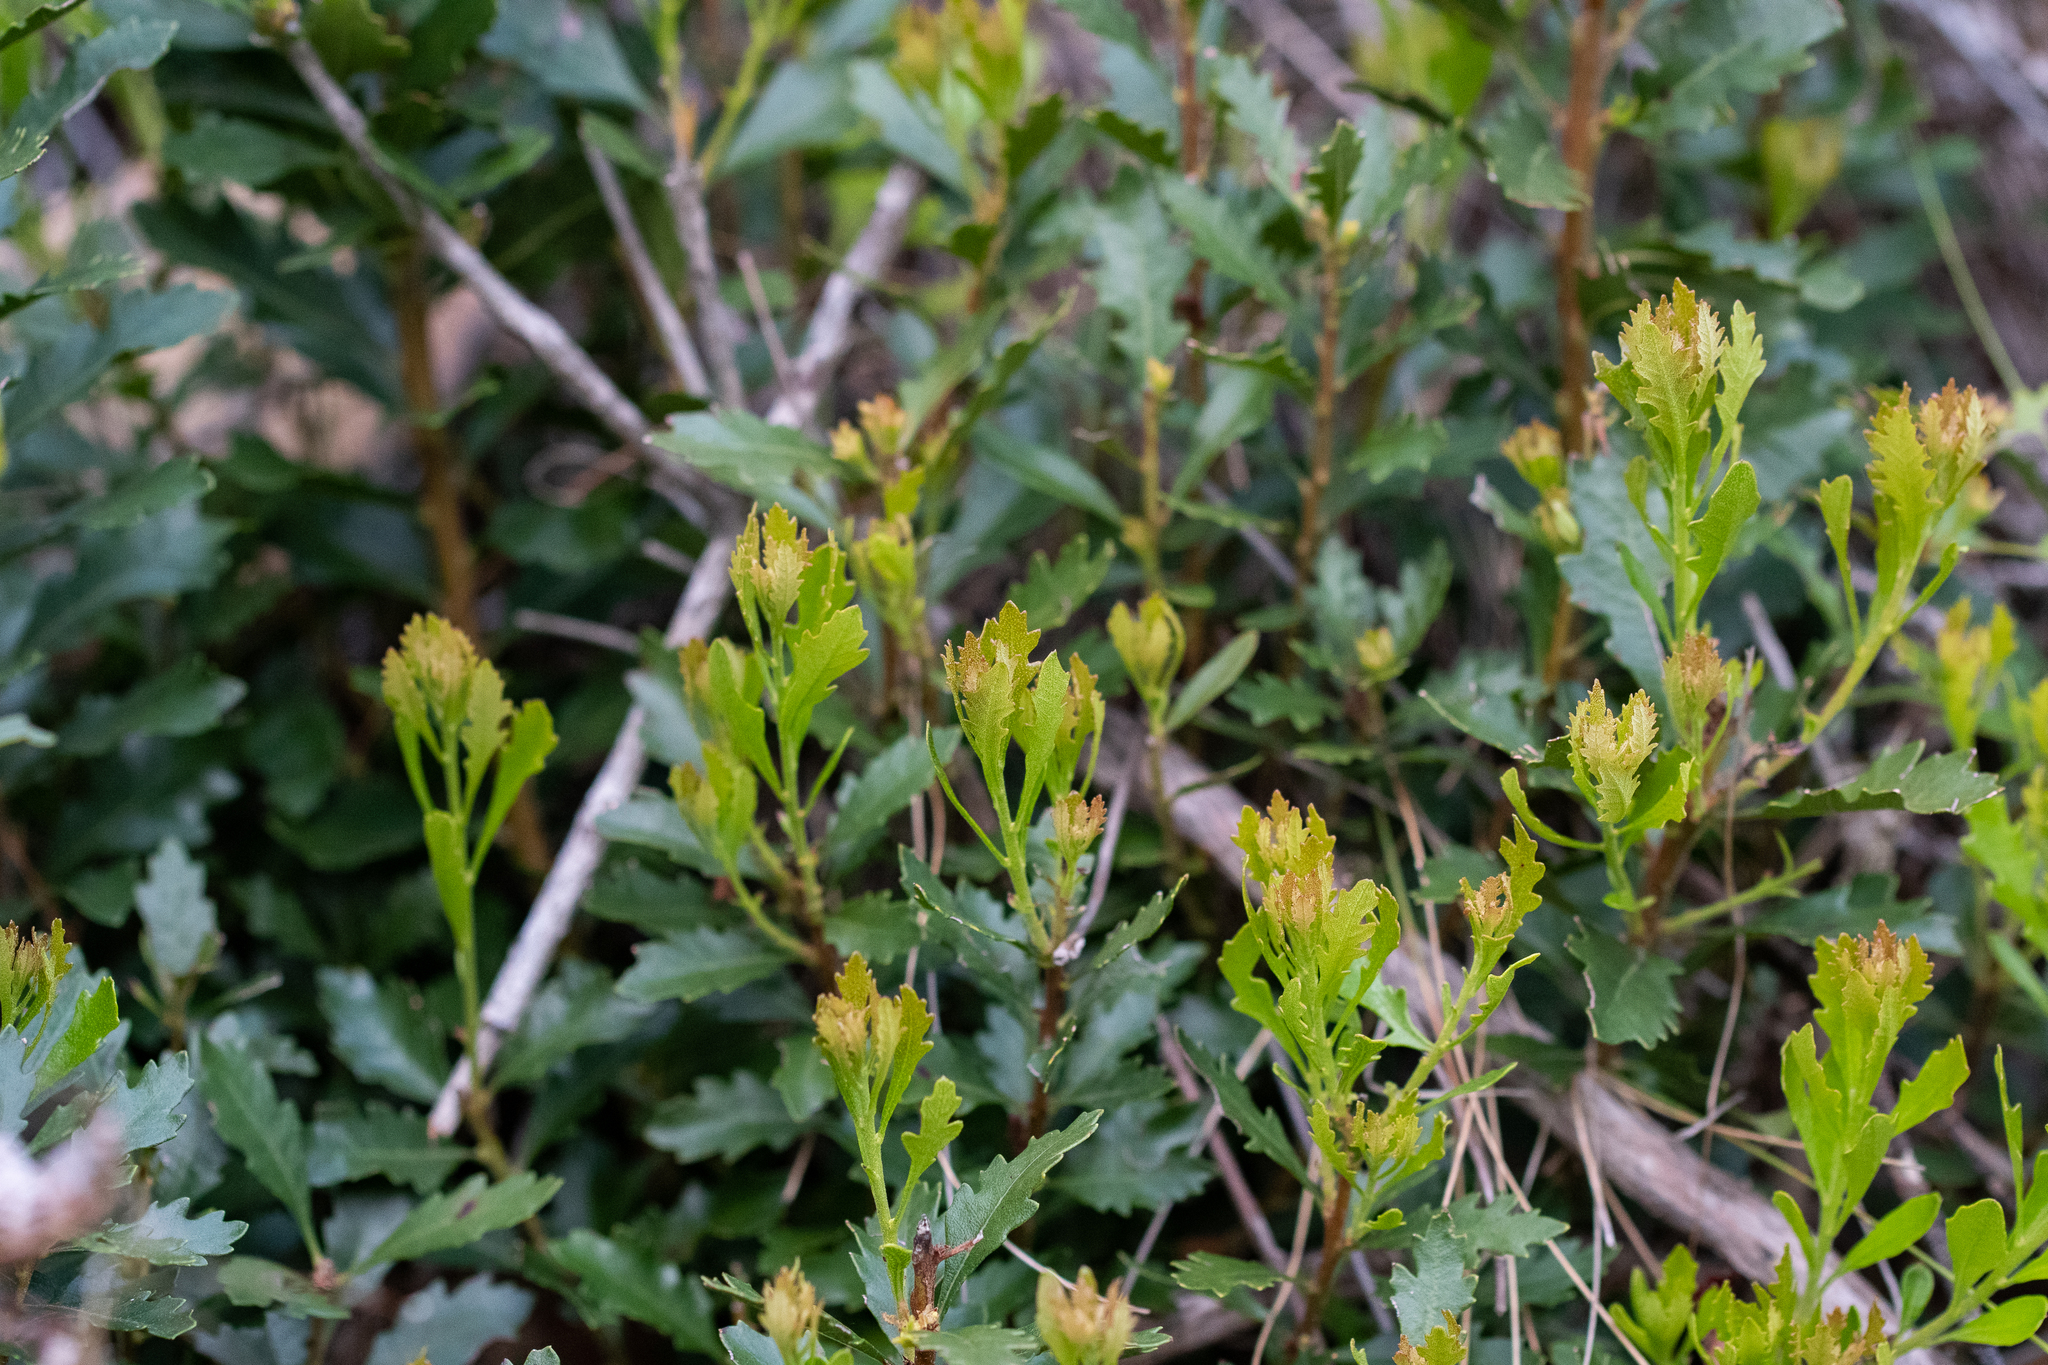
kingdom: Plantae
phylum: Tracheophyta
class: Magnoliopsida
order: Fagales
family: Myricaceae
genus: Morella
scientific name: Morella quercifolia
